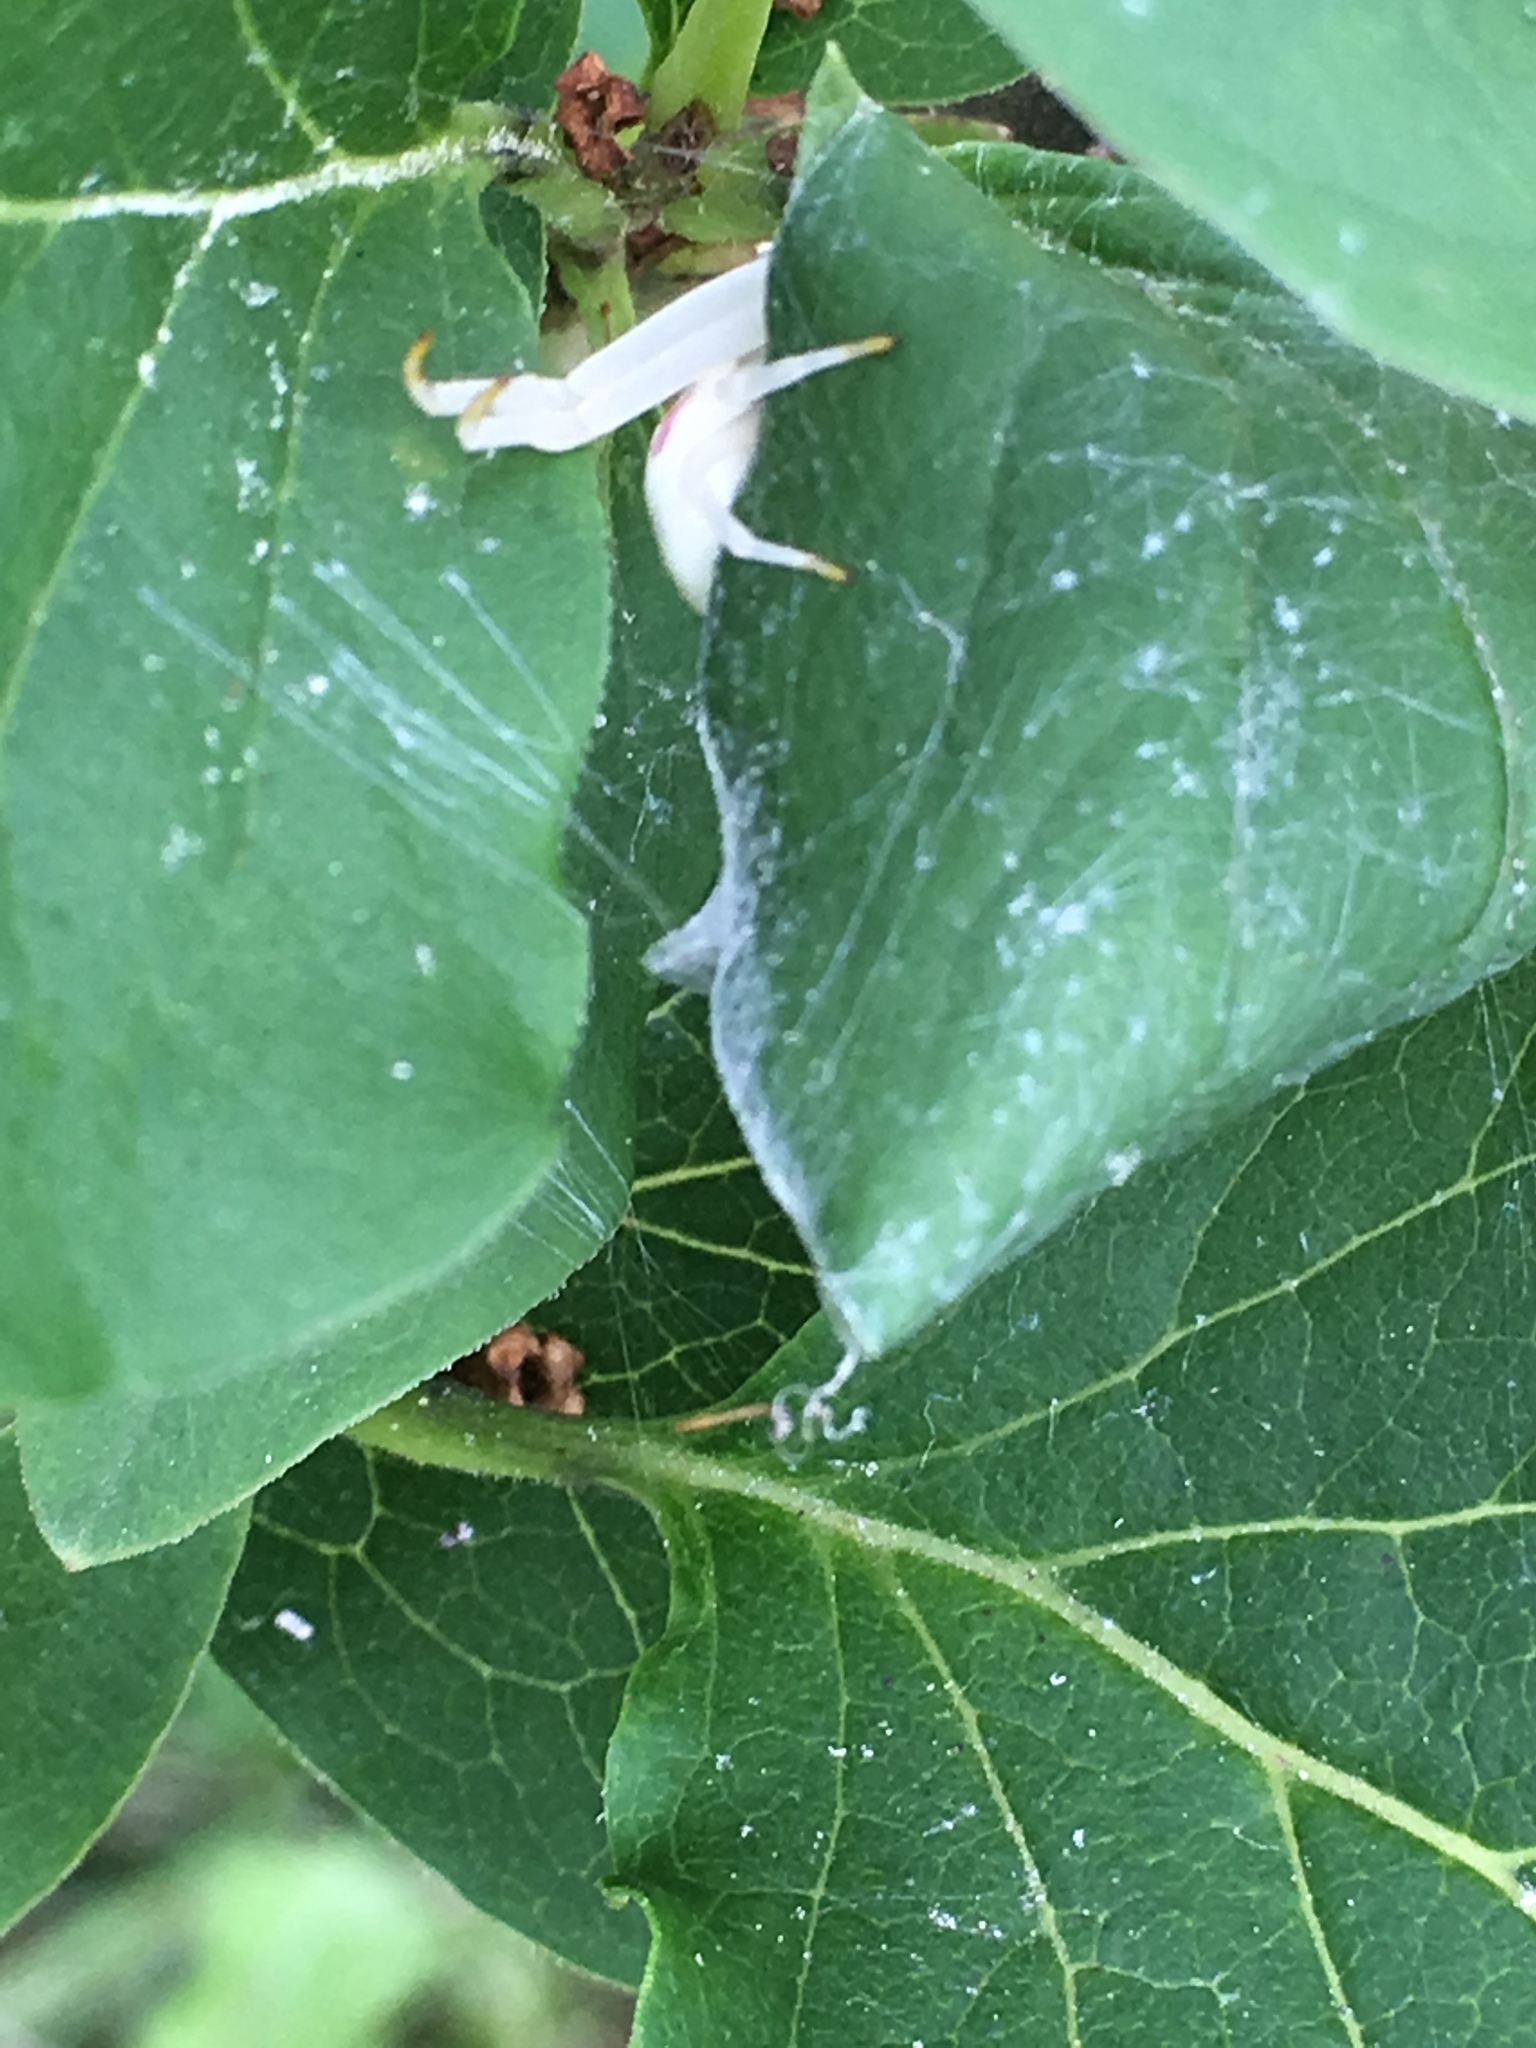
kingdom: Animalia
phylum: Arthropoda
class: Arachnida
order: Araneae
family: Thomisidae
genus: Misumena
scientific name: Misumena vatia
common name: Goldenrod crab spider
